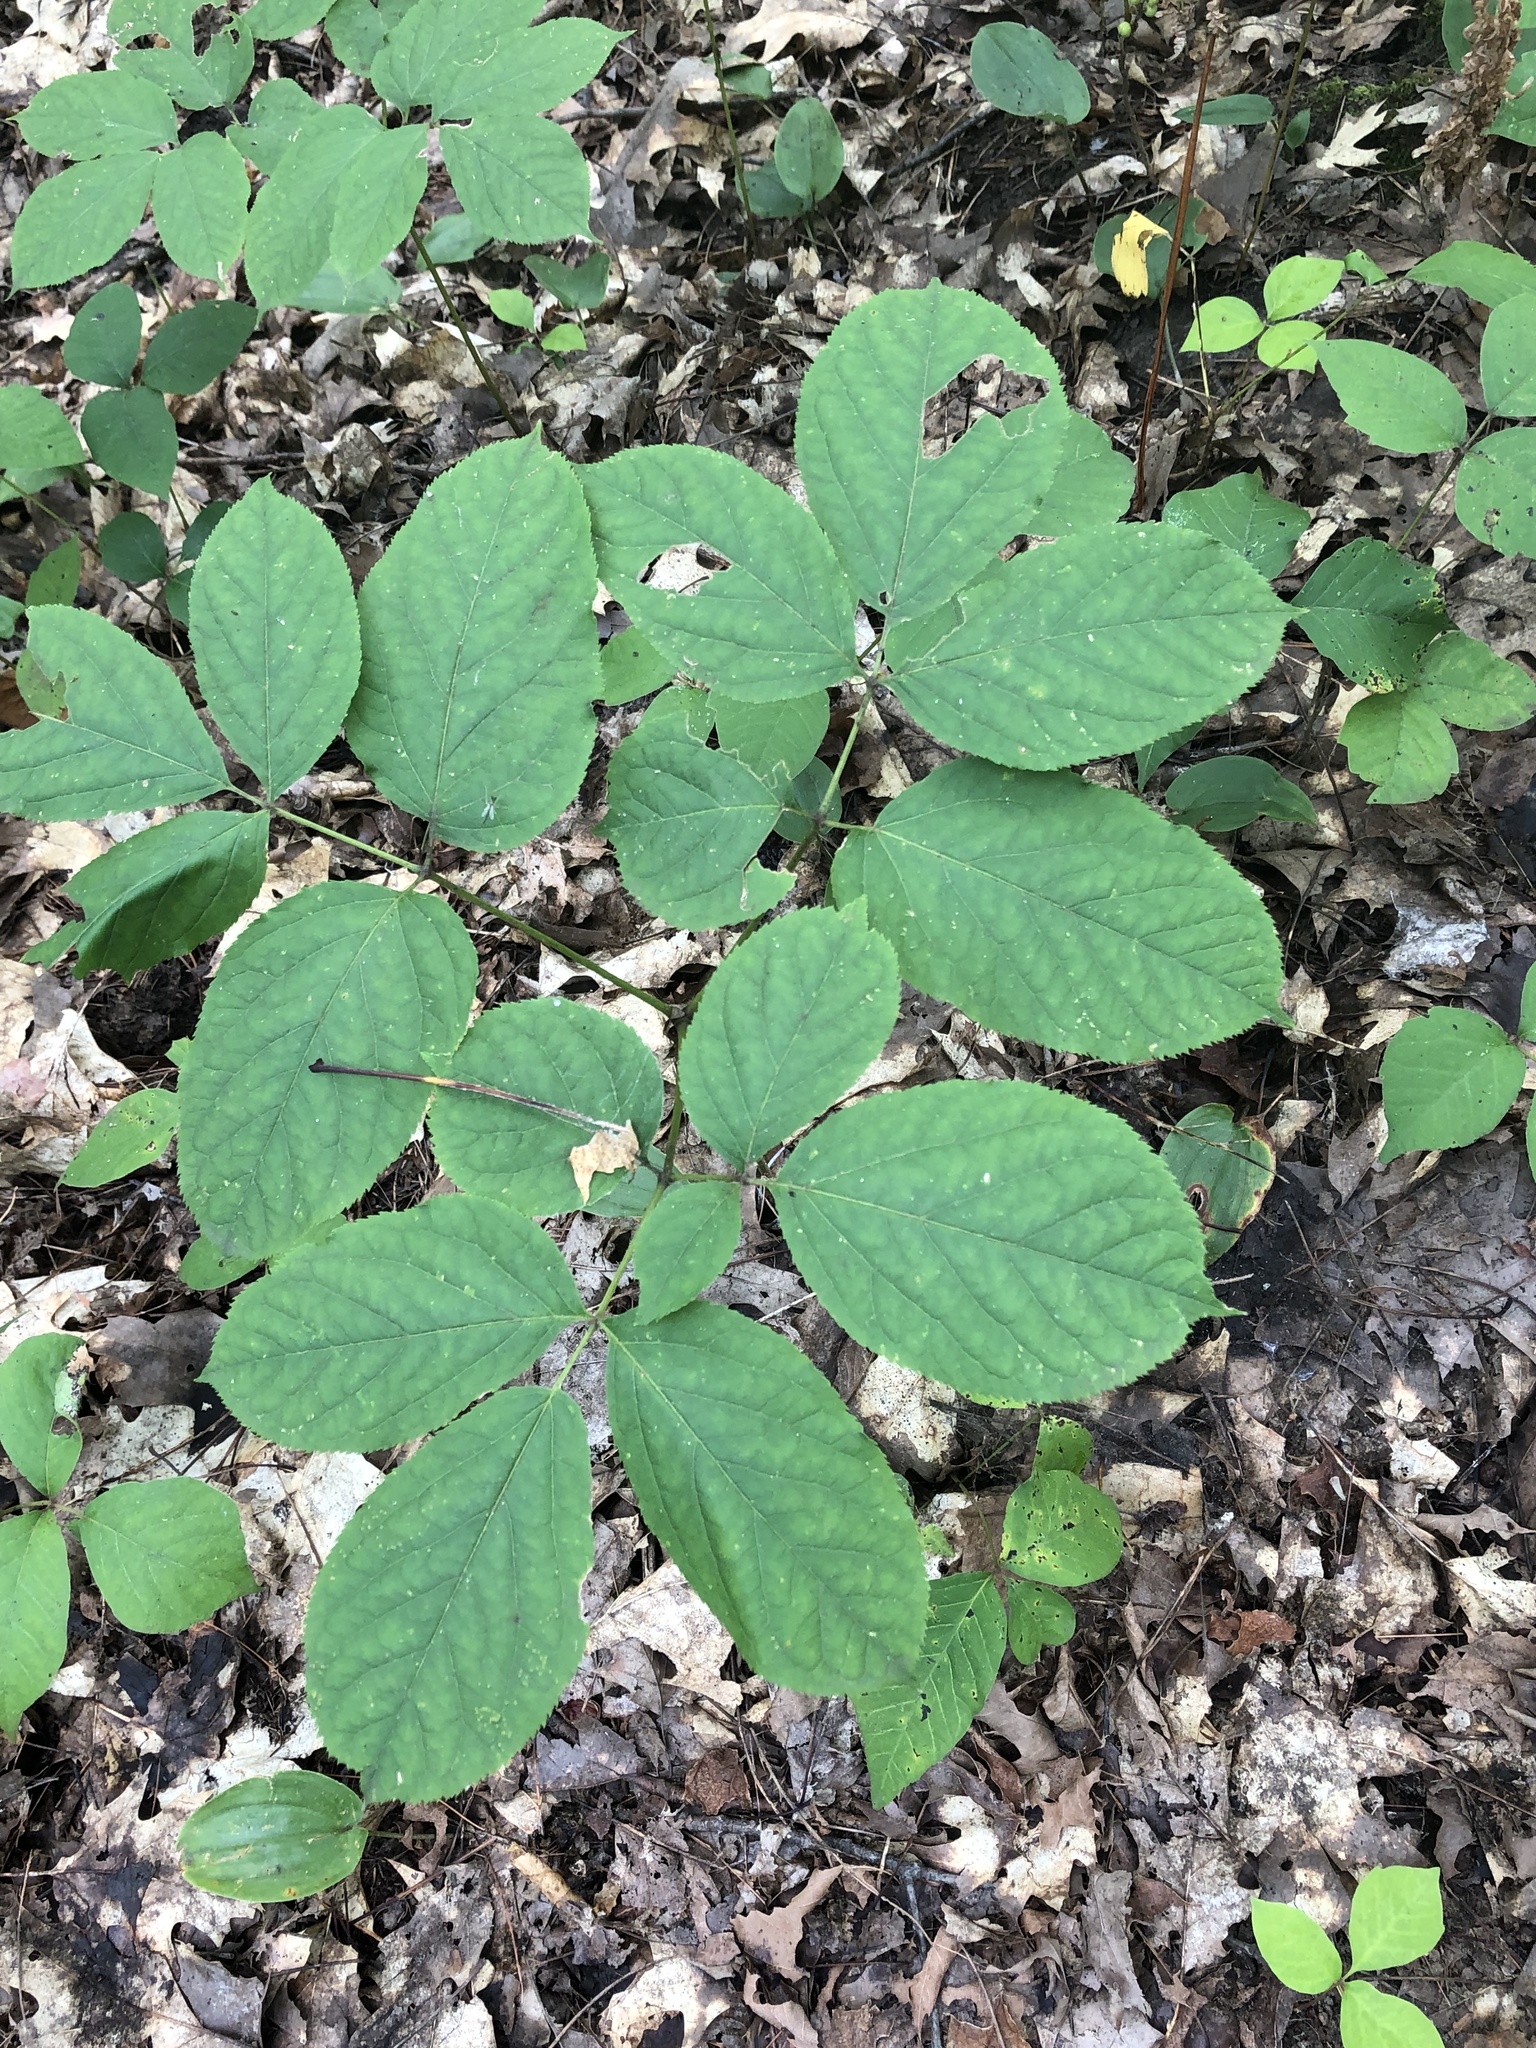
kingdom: Plantae
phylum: Tracheophyta
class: Magnoliopsida
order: Apiales
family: Araliaceae
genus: Aralia
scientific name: Aralia nudicaulis
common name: Wild sarsaparilla
